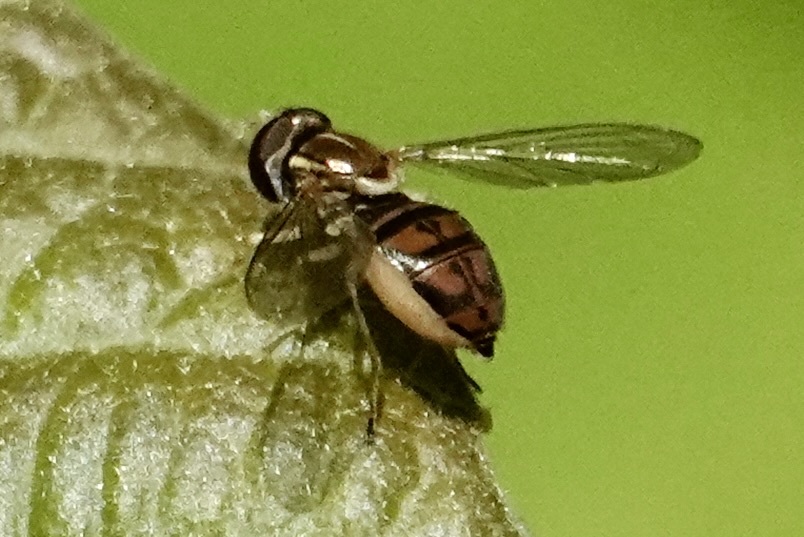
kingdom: Animalia
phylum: Arthropoda
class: Insecta
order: Diptera
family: Syrphidae
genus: Toxomerus
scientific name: Toxomerus marginatus
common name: Syrphid fly
